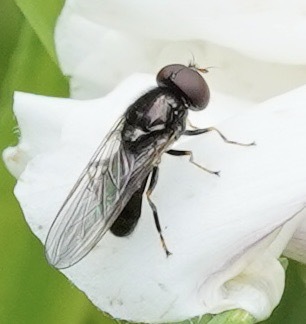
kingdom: Animalia
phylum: Arthropoda
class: Insecta
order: Diptera
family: Syrphidae
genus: Cheilosia
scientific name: Cheilosia
